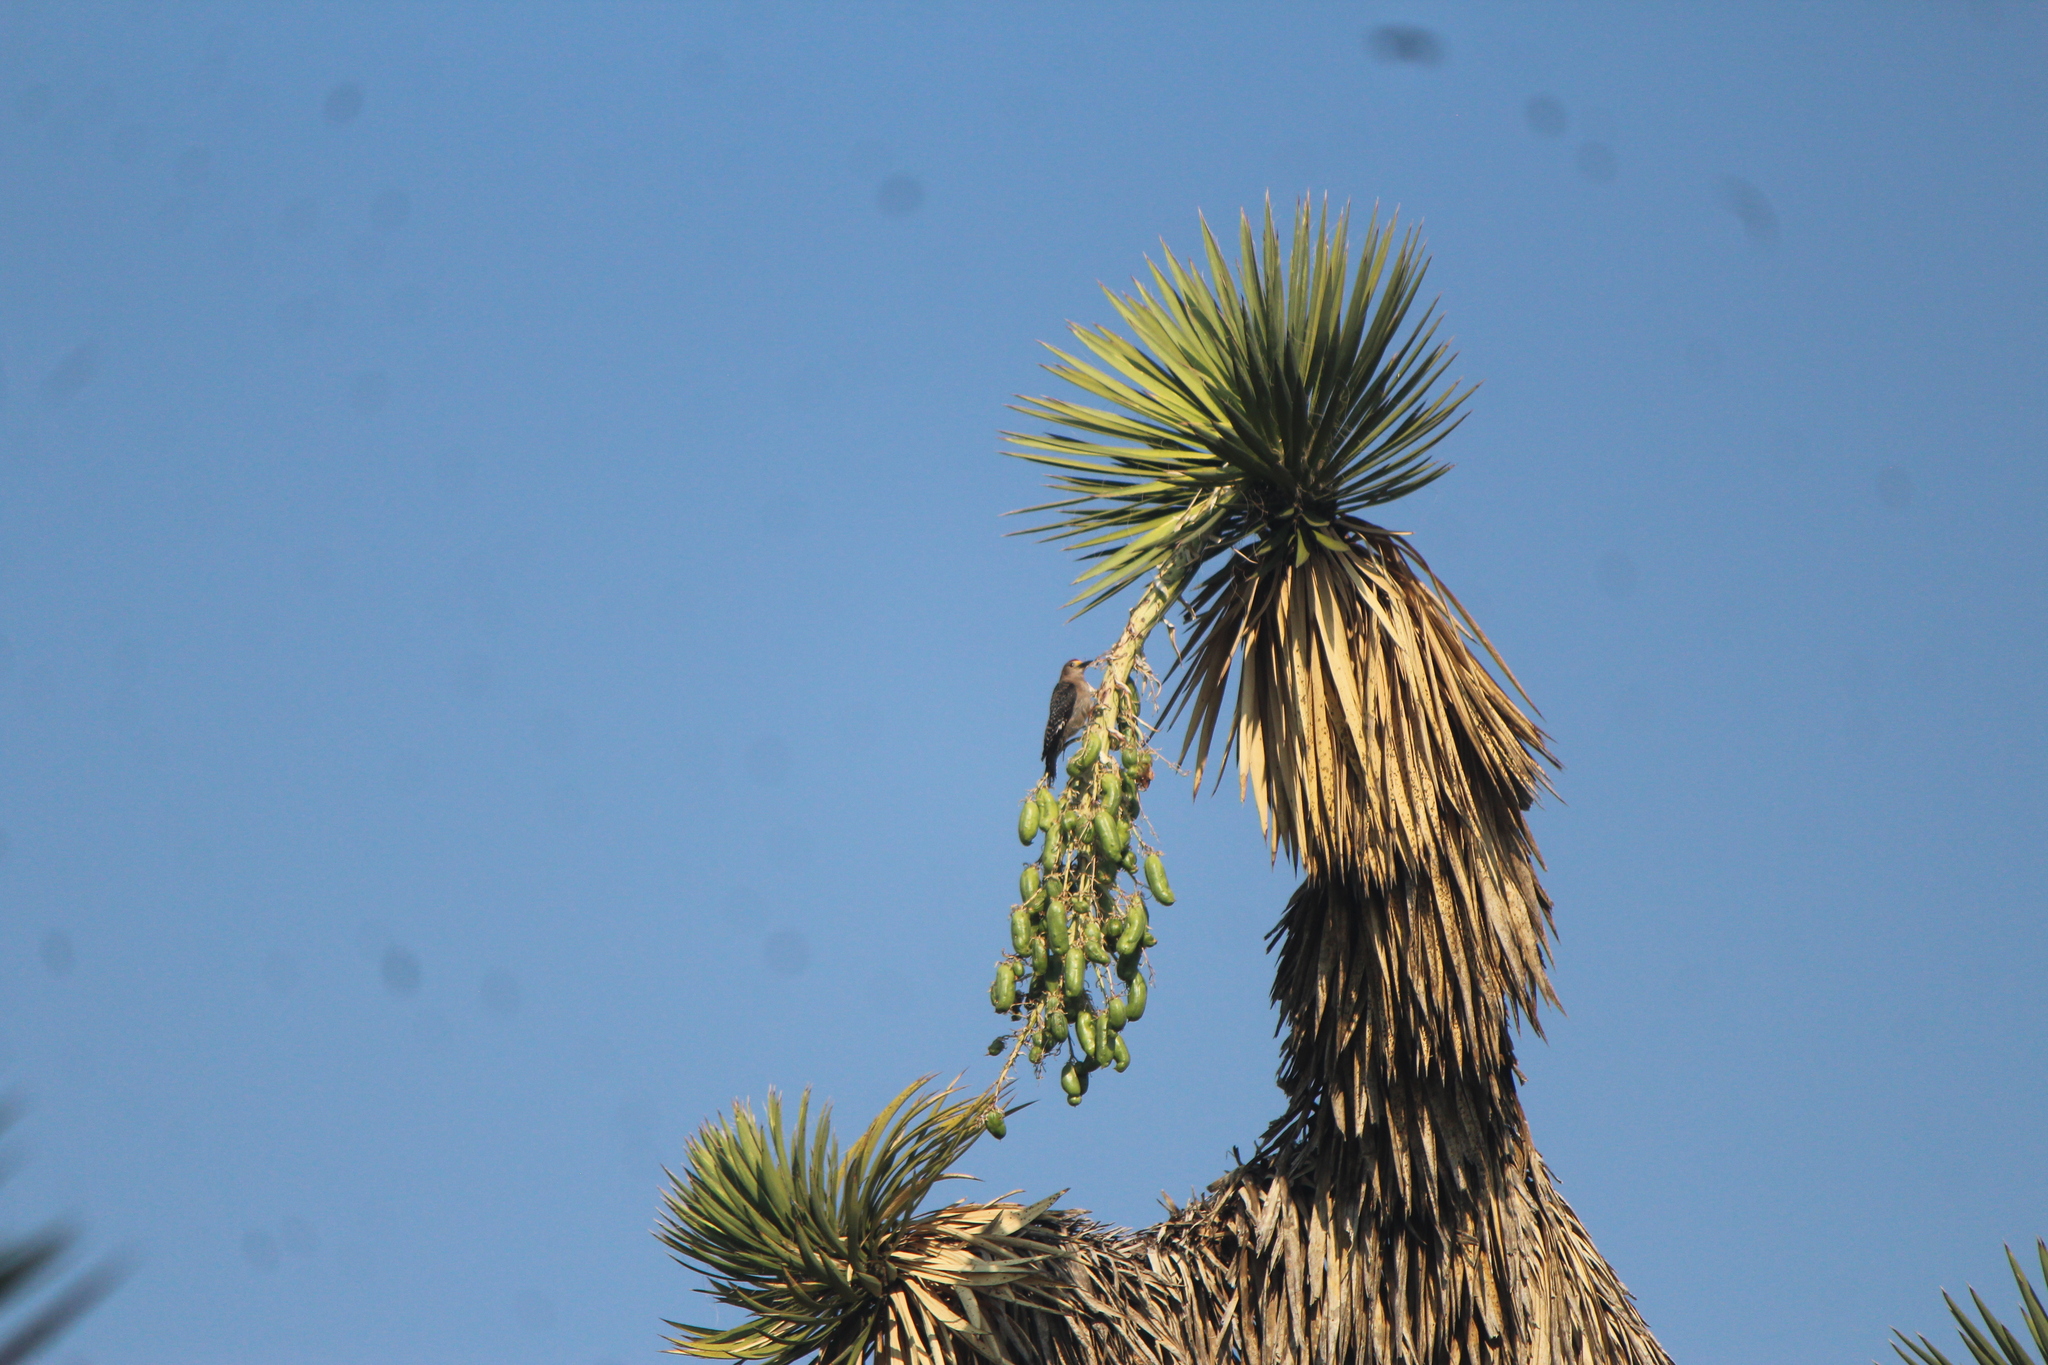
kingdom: Animalia
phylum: Chordata
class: Aves
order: Piciformes
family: Picidae
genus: Melanerpes
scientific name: Melanerpes aurifrons
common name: Golden-fronted woodpecker
